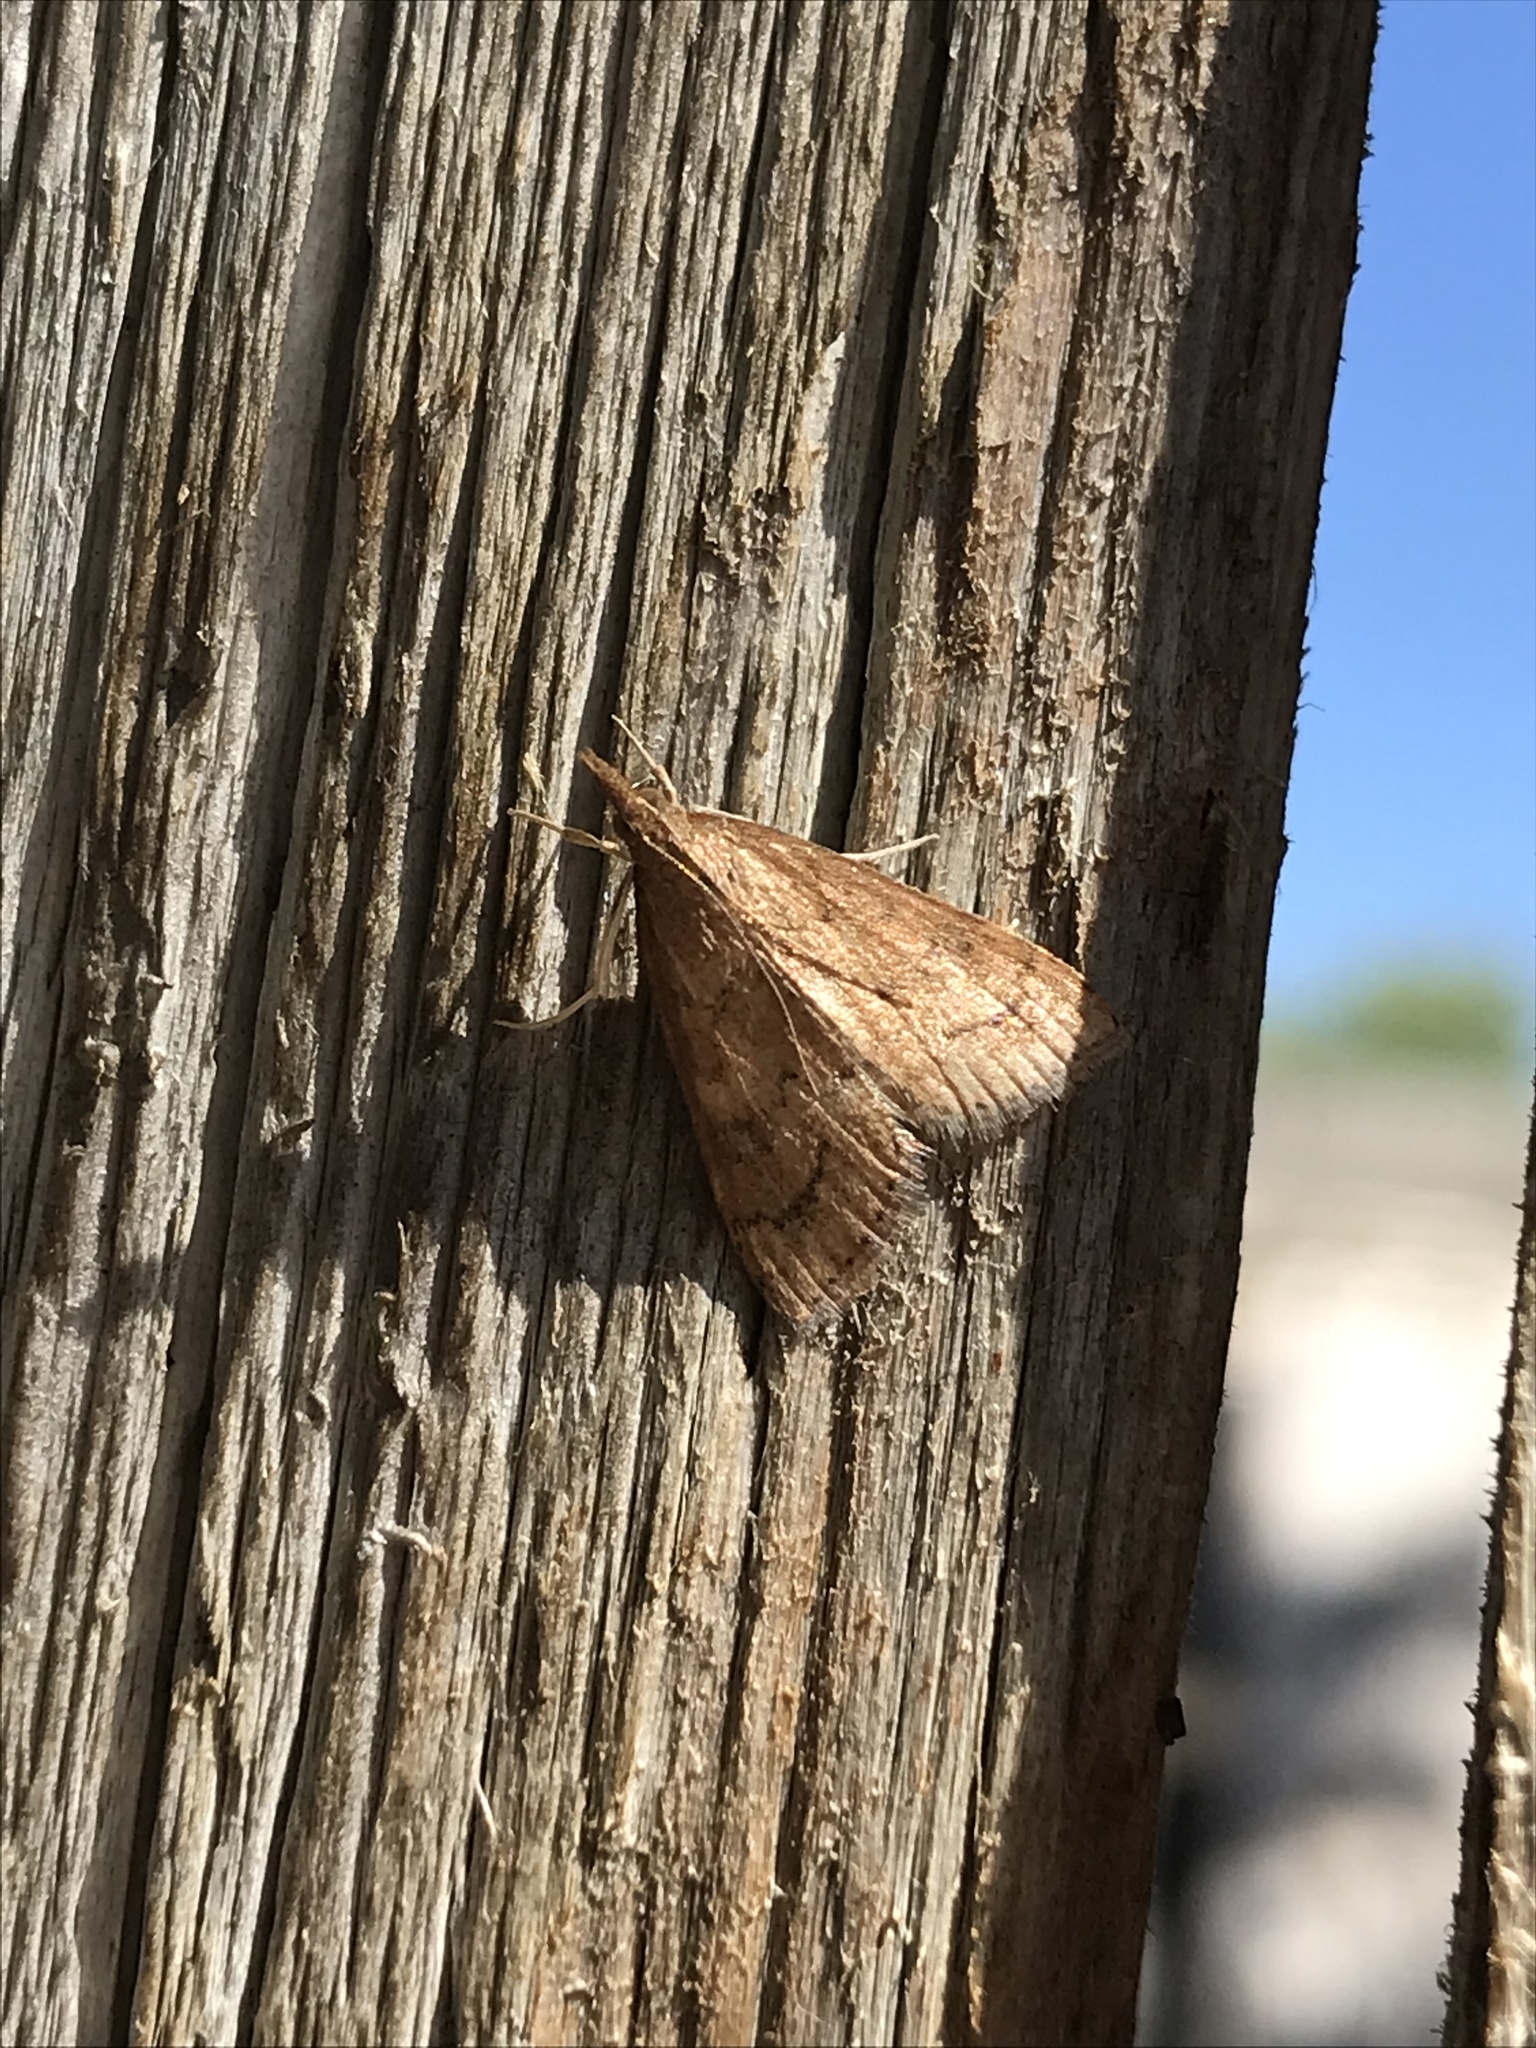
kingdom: Animalia
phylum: Arthropoda
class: Insecta
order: Lepidoptera
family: Crambidae
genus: Udea
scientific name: Udea rubigalis
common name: Celery leaftier moth
